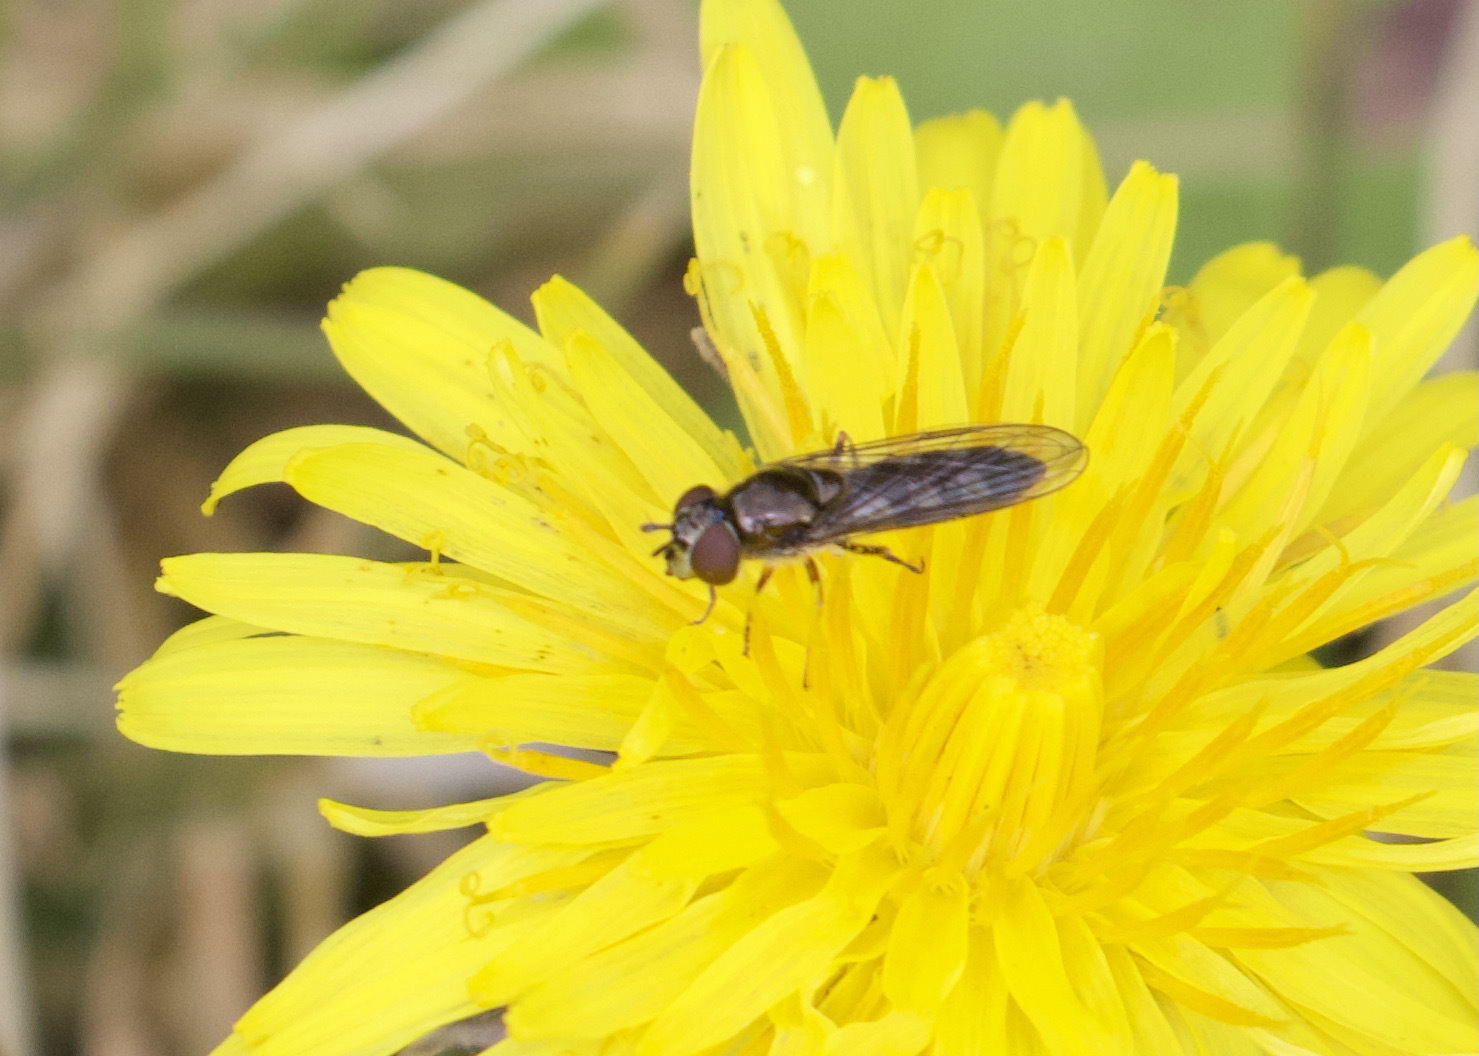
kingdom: Animalia
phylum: Arthropoda
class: Insecta
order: Diptera
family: Syrphidae
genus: Platycheirus
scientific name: Platycheirus albimanus
